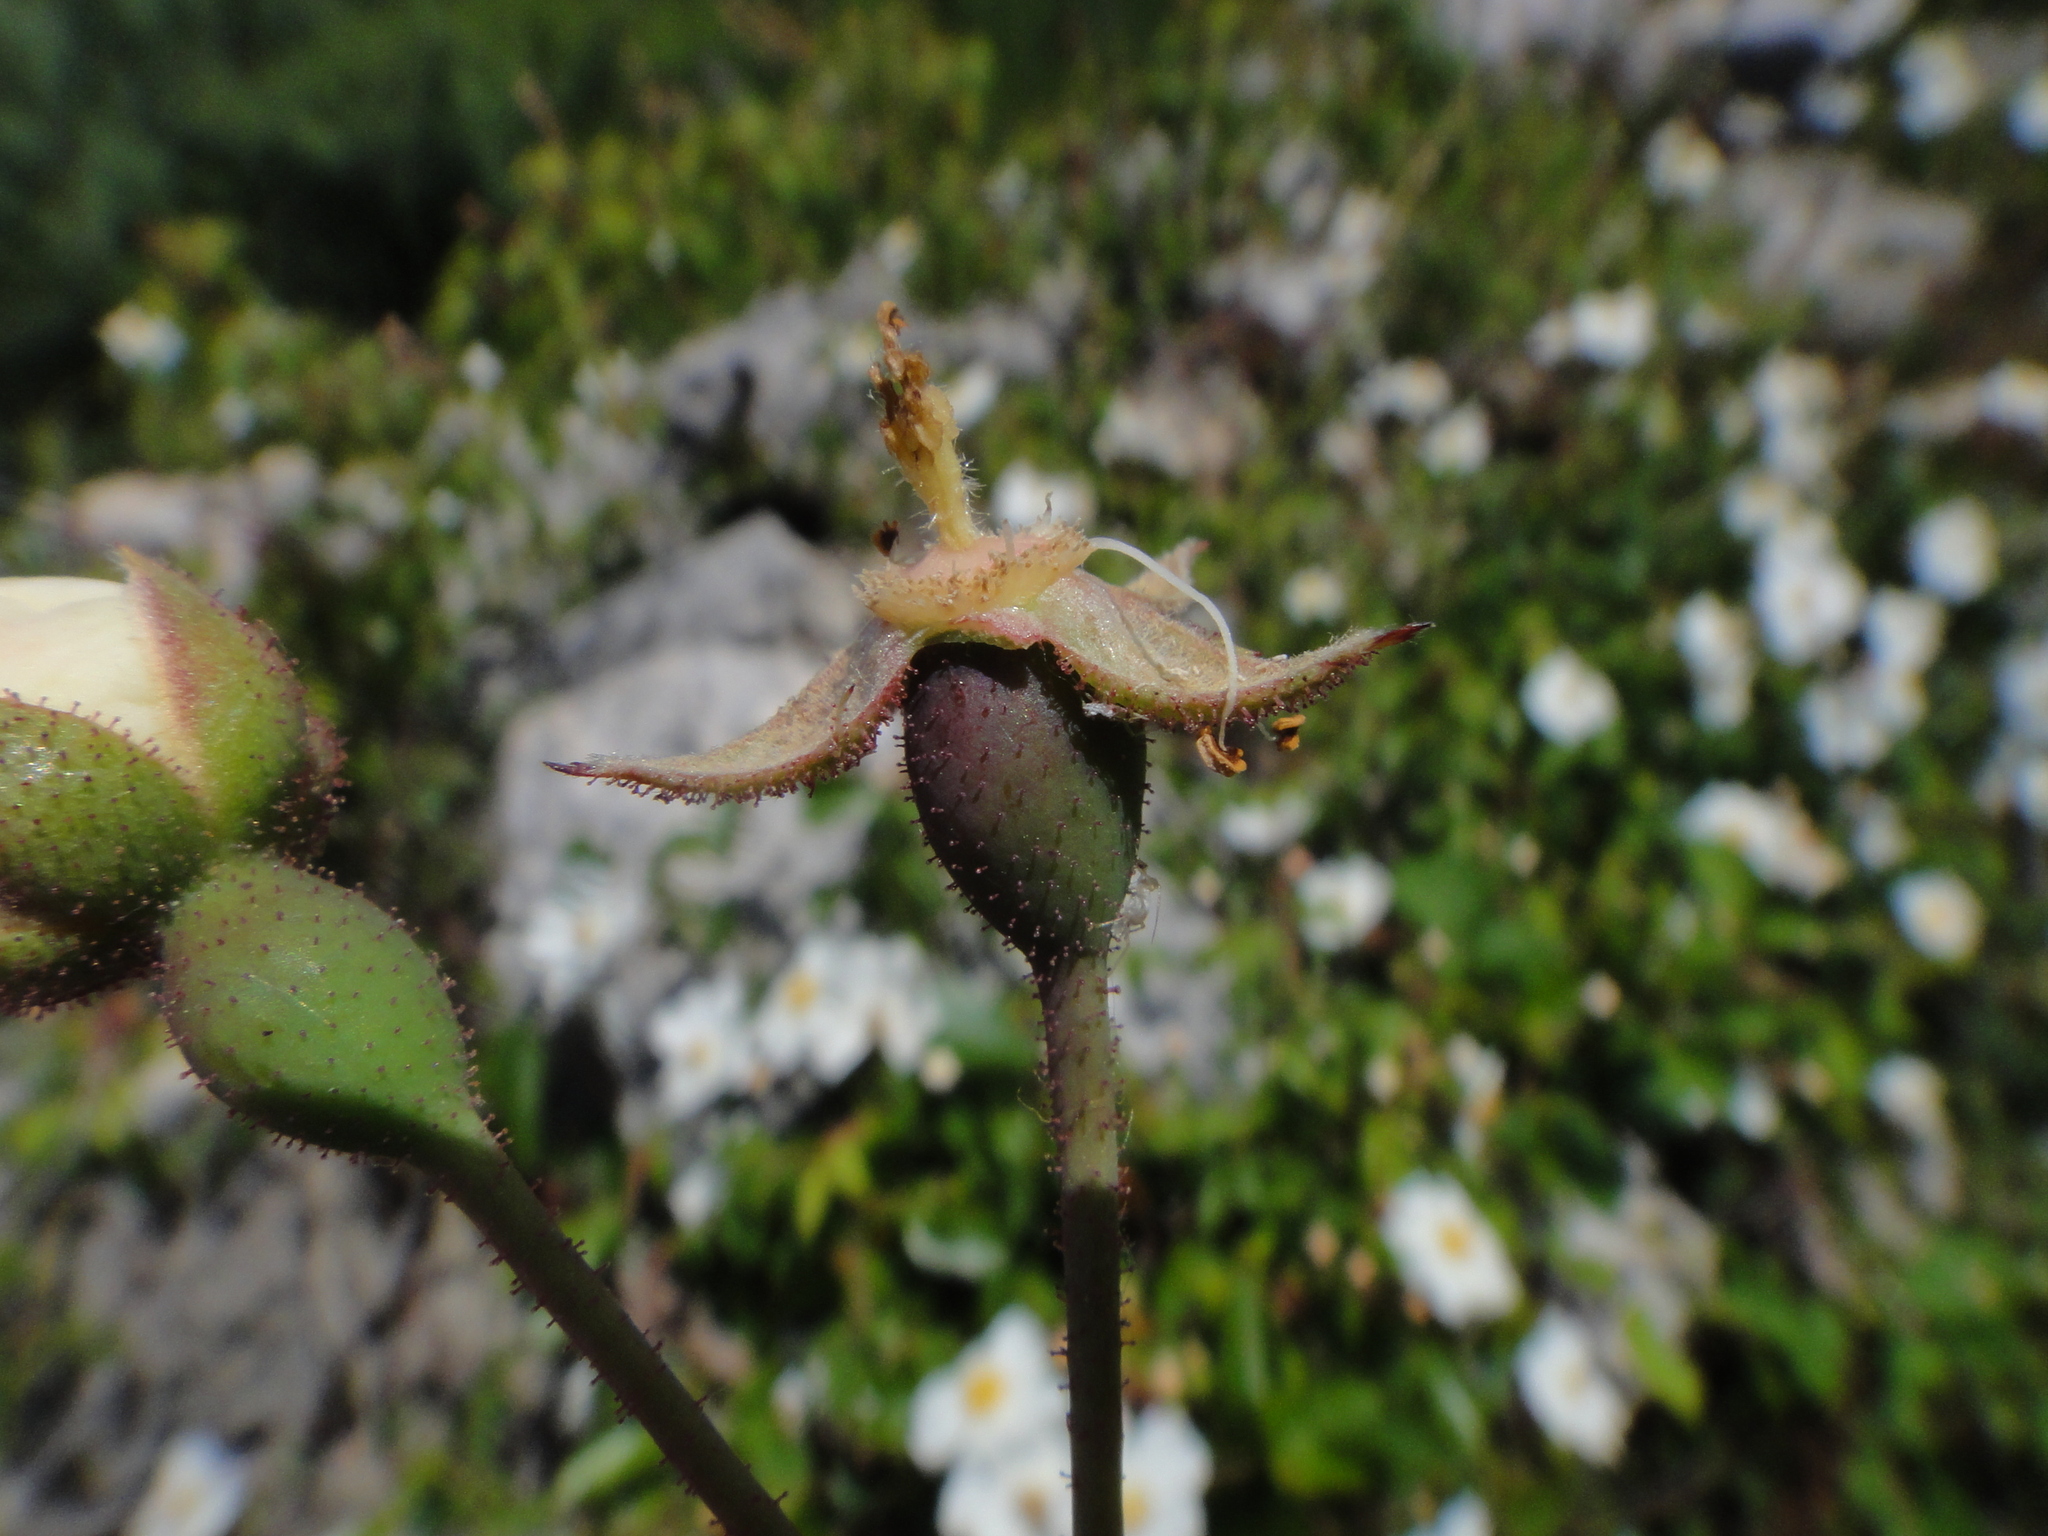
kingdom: Plantae
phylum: Tracheophyta
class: Magnoliopsida
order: Rosales
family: Rosaceae
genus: Rosa
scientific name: Rosa sempervirens
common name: Evergreen rose
